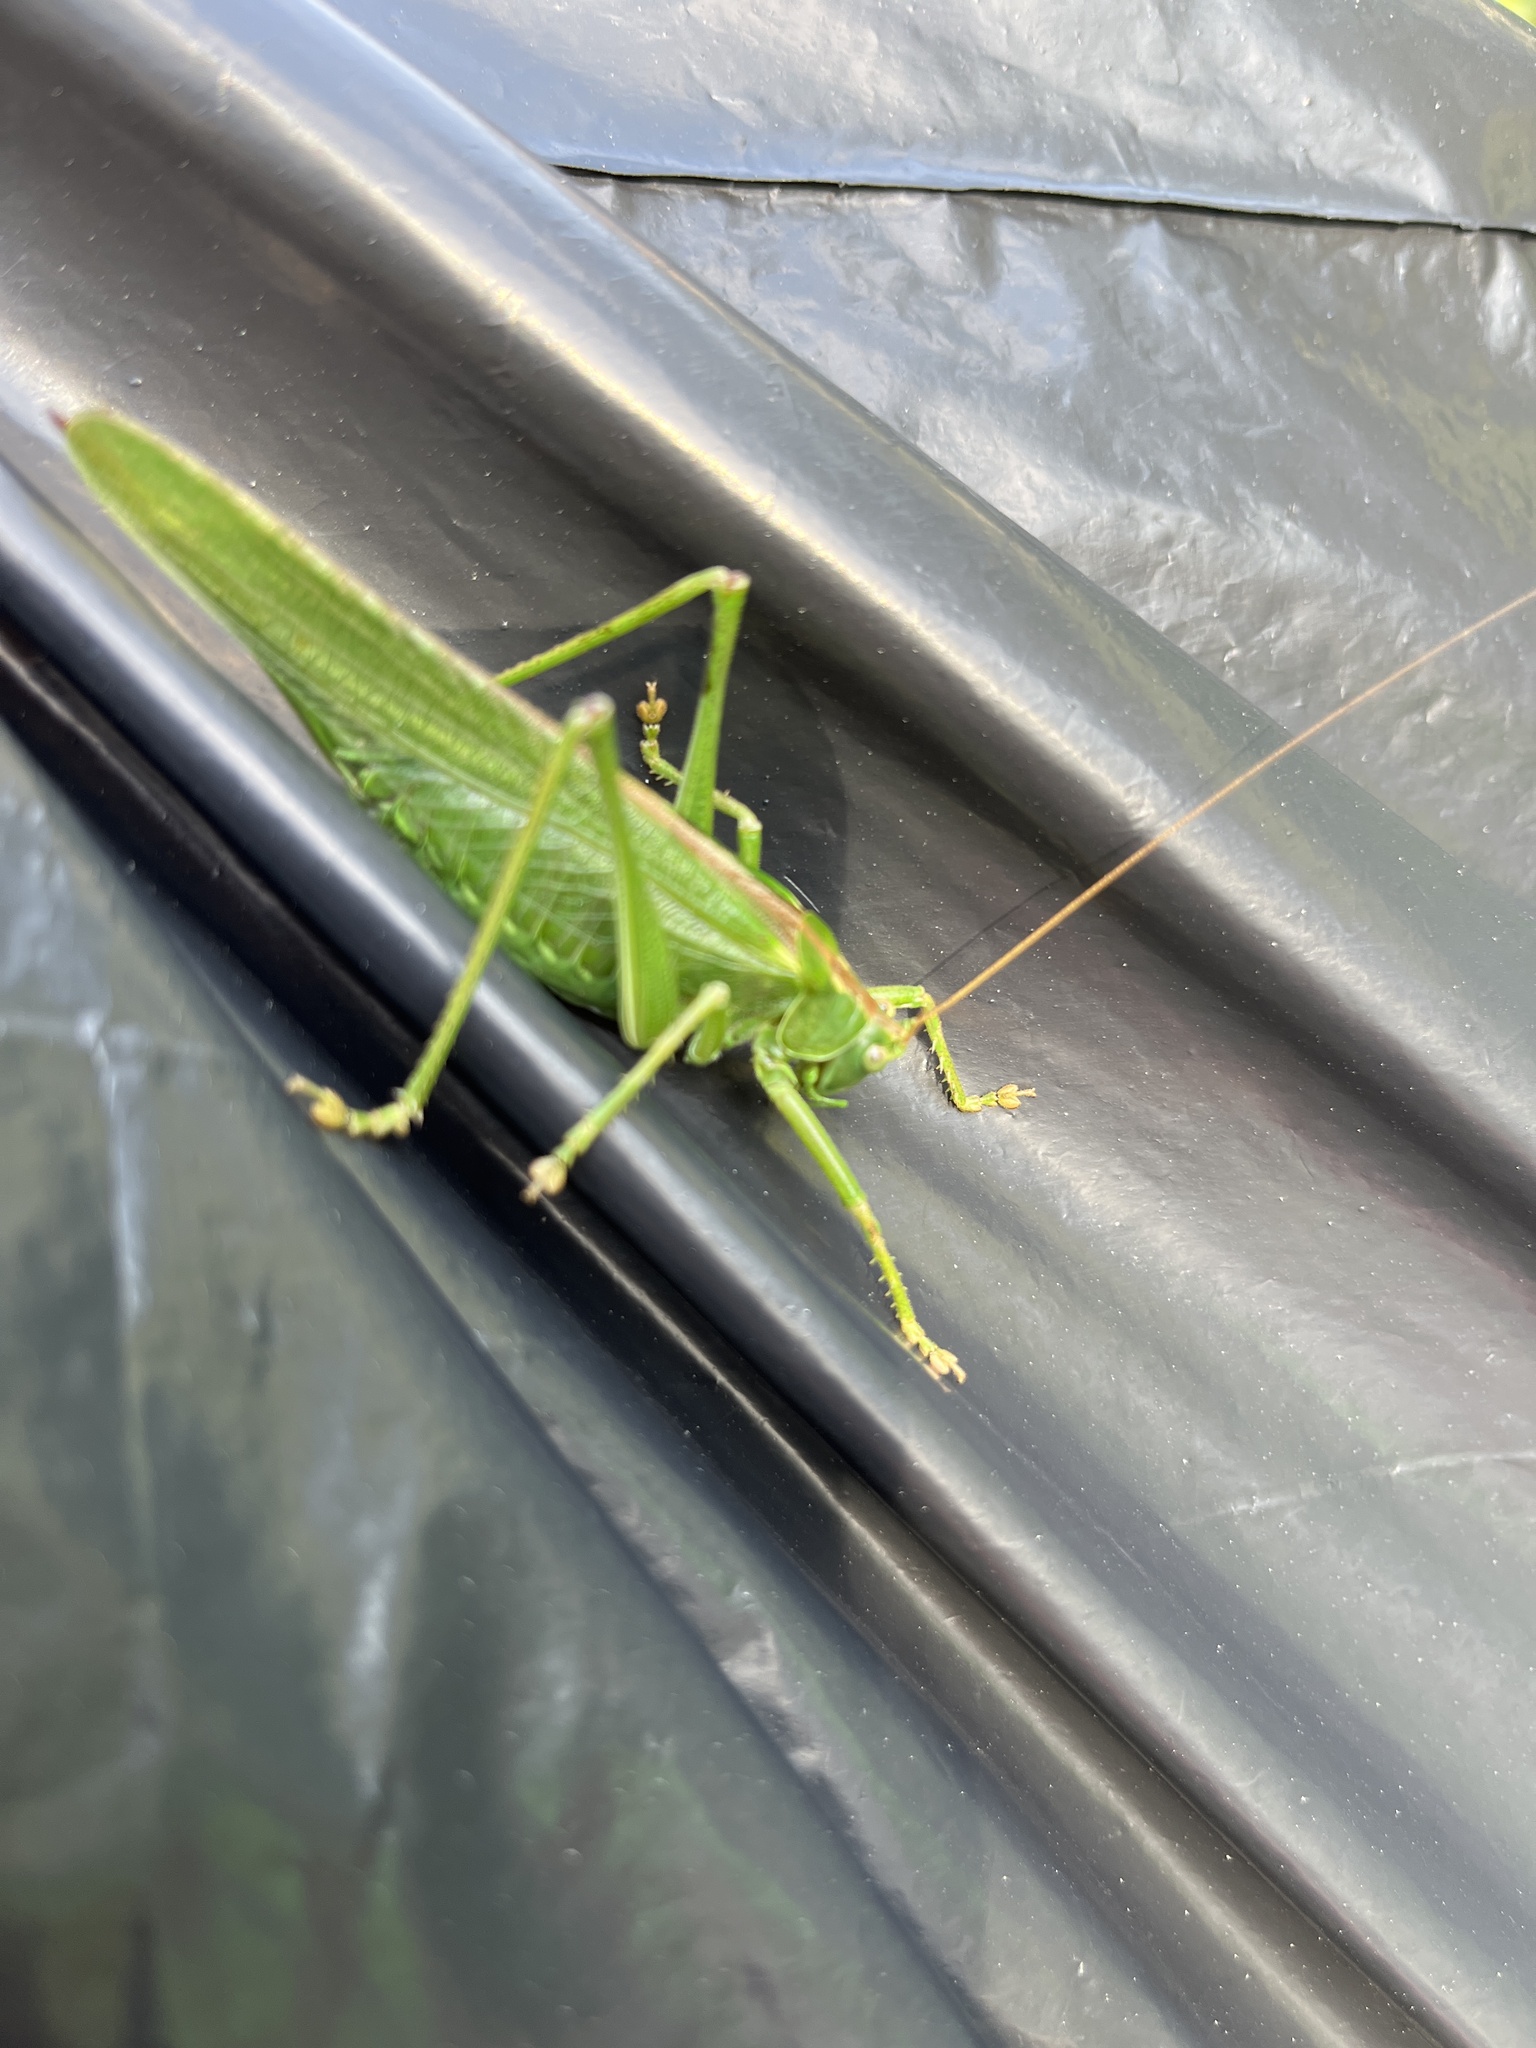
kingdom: Animalia
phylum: Arthropoda
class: Insecta
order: Orthoptera
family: Tettigoniidae
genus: Tettigonia
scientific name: Tettigonia viridissima
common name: Great green bush-cricket
